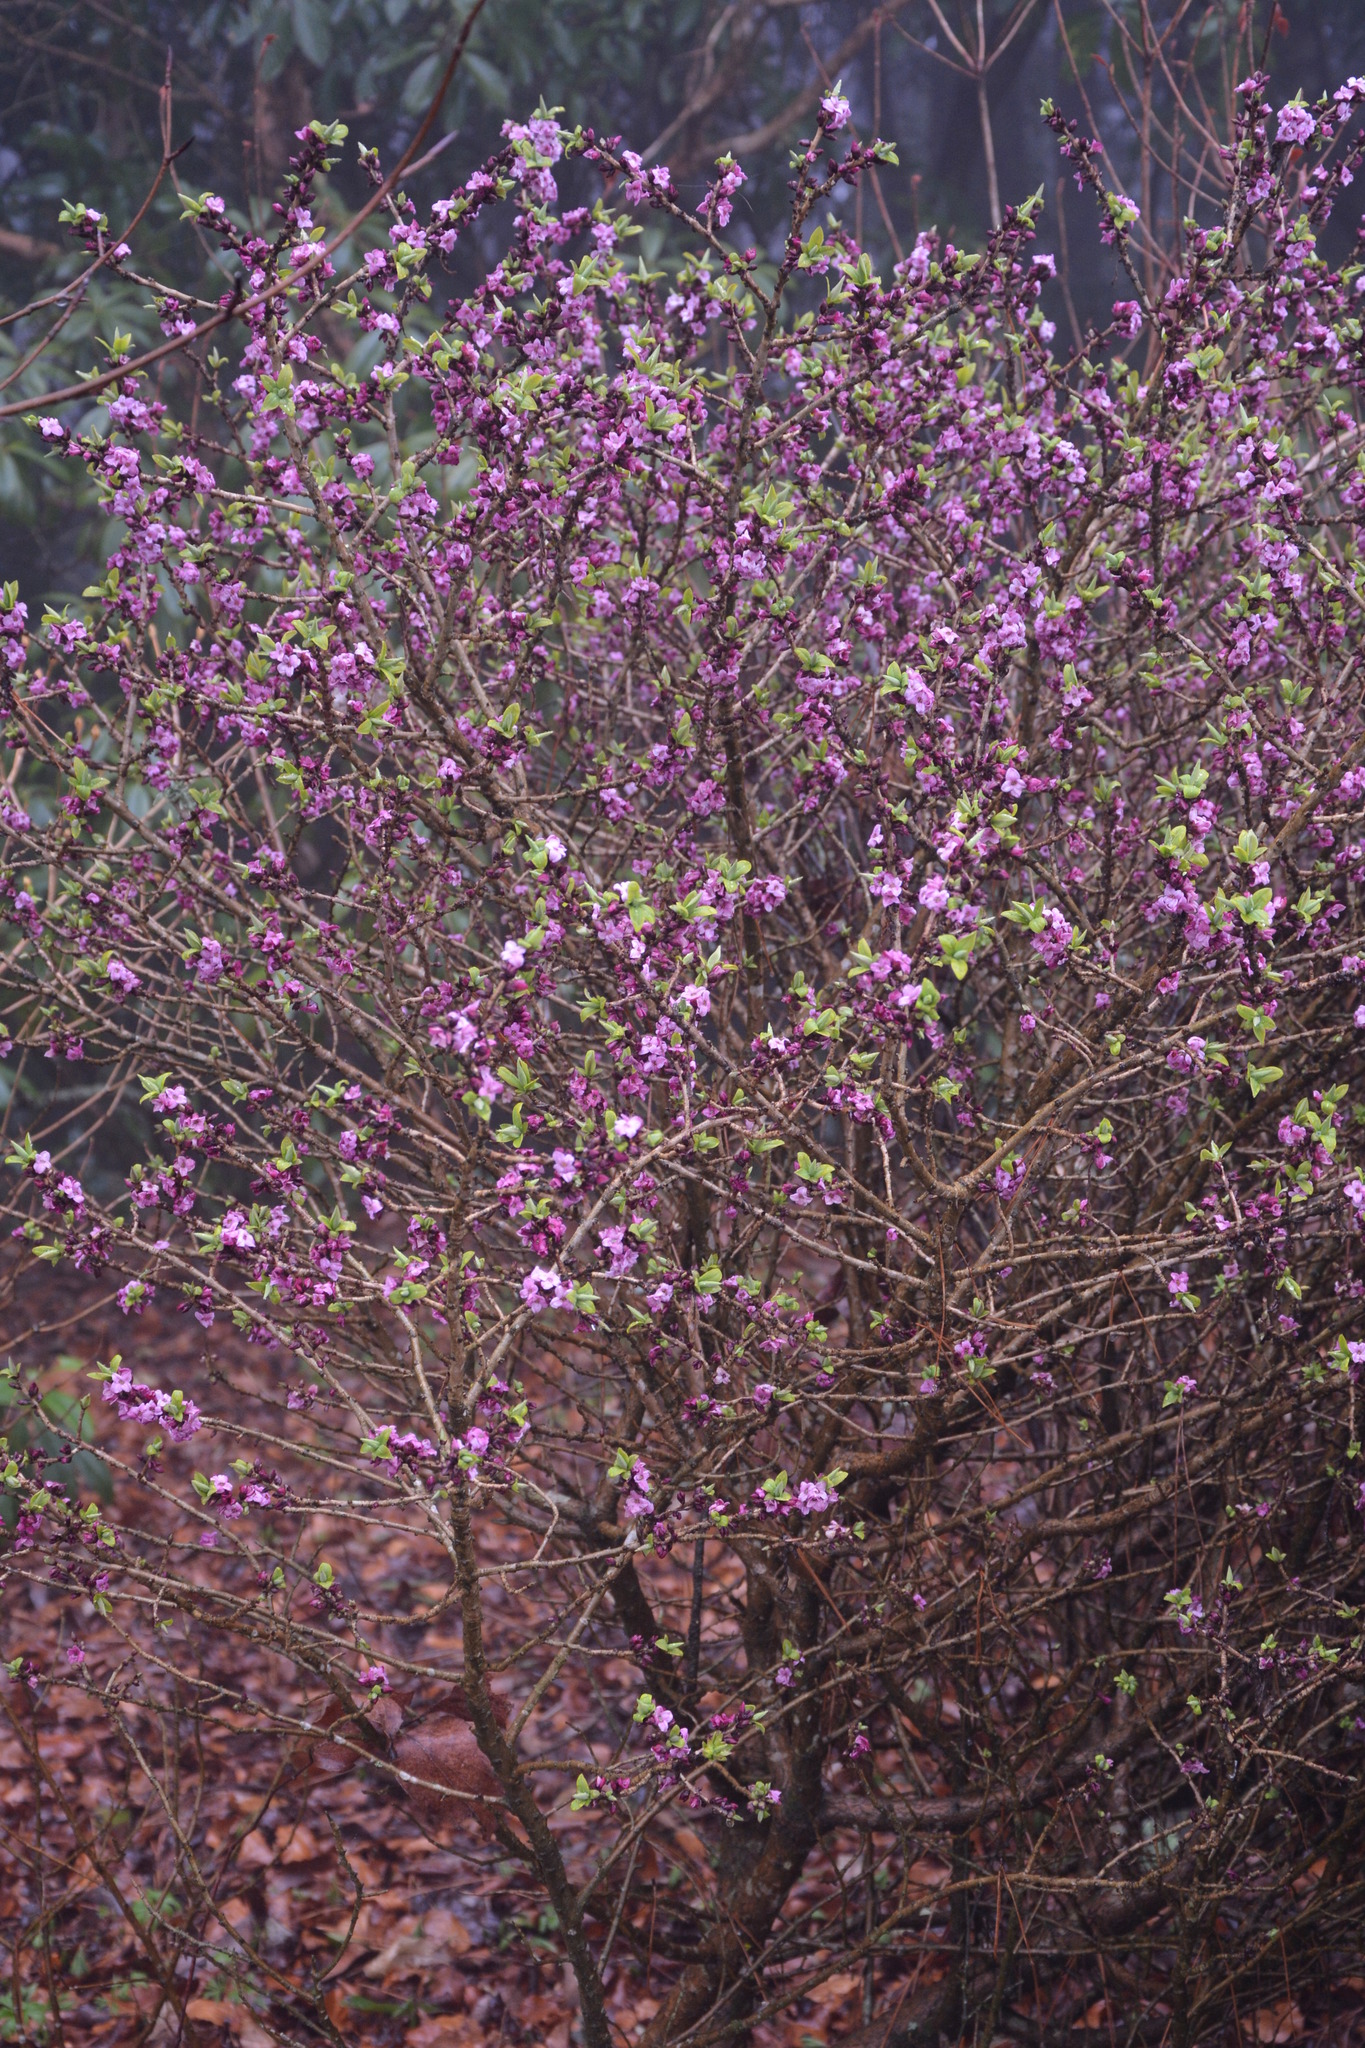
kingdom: Plantae
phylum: Tracheophyta
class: Magnoliopsida
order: Malvales
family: Thymelaeaceae
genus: Daphne
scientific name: Daphne mezereum
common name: Mezereon
